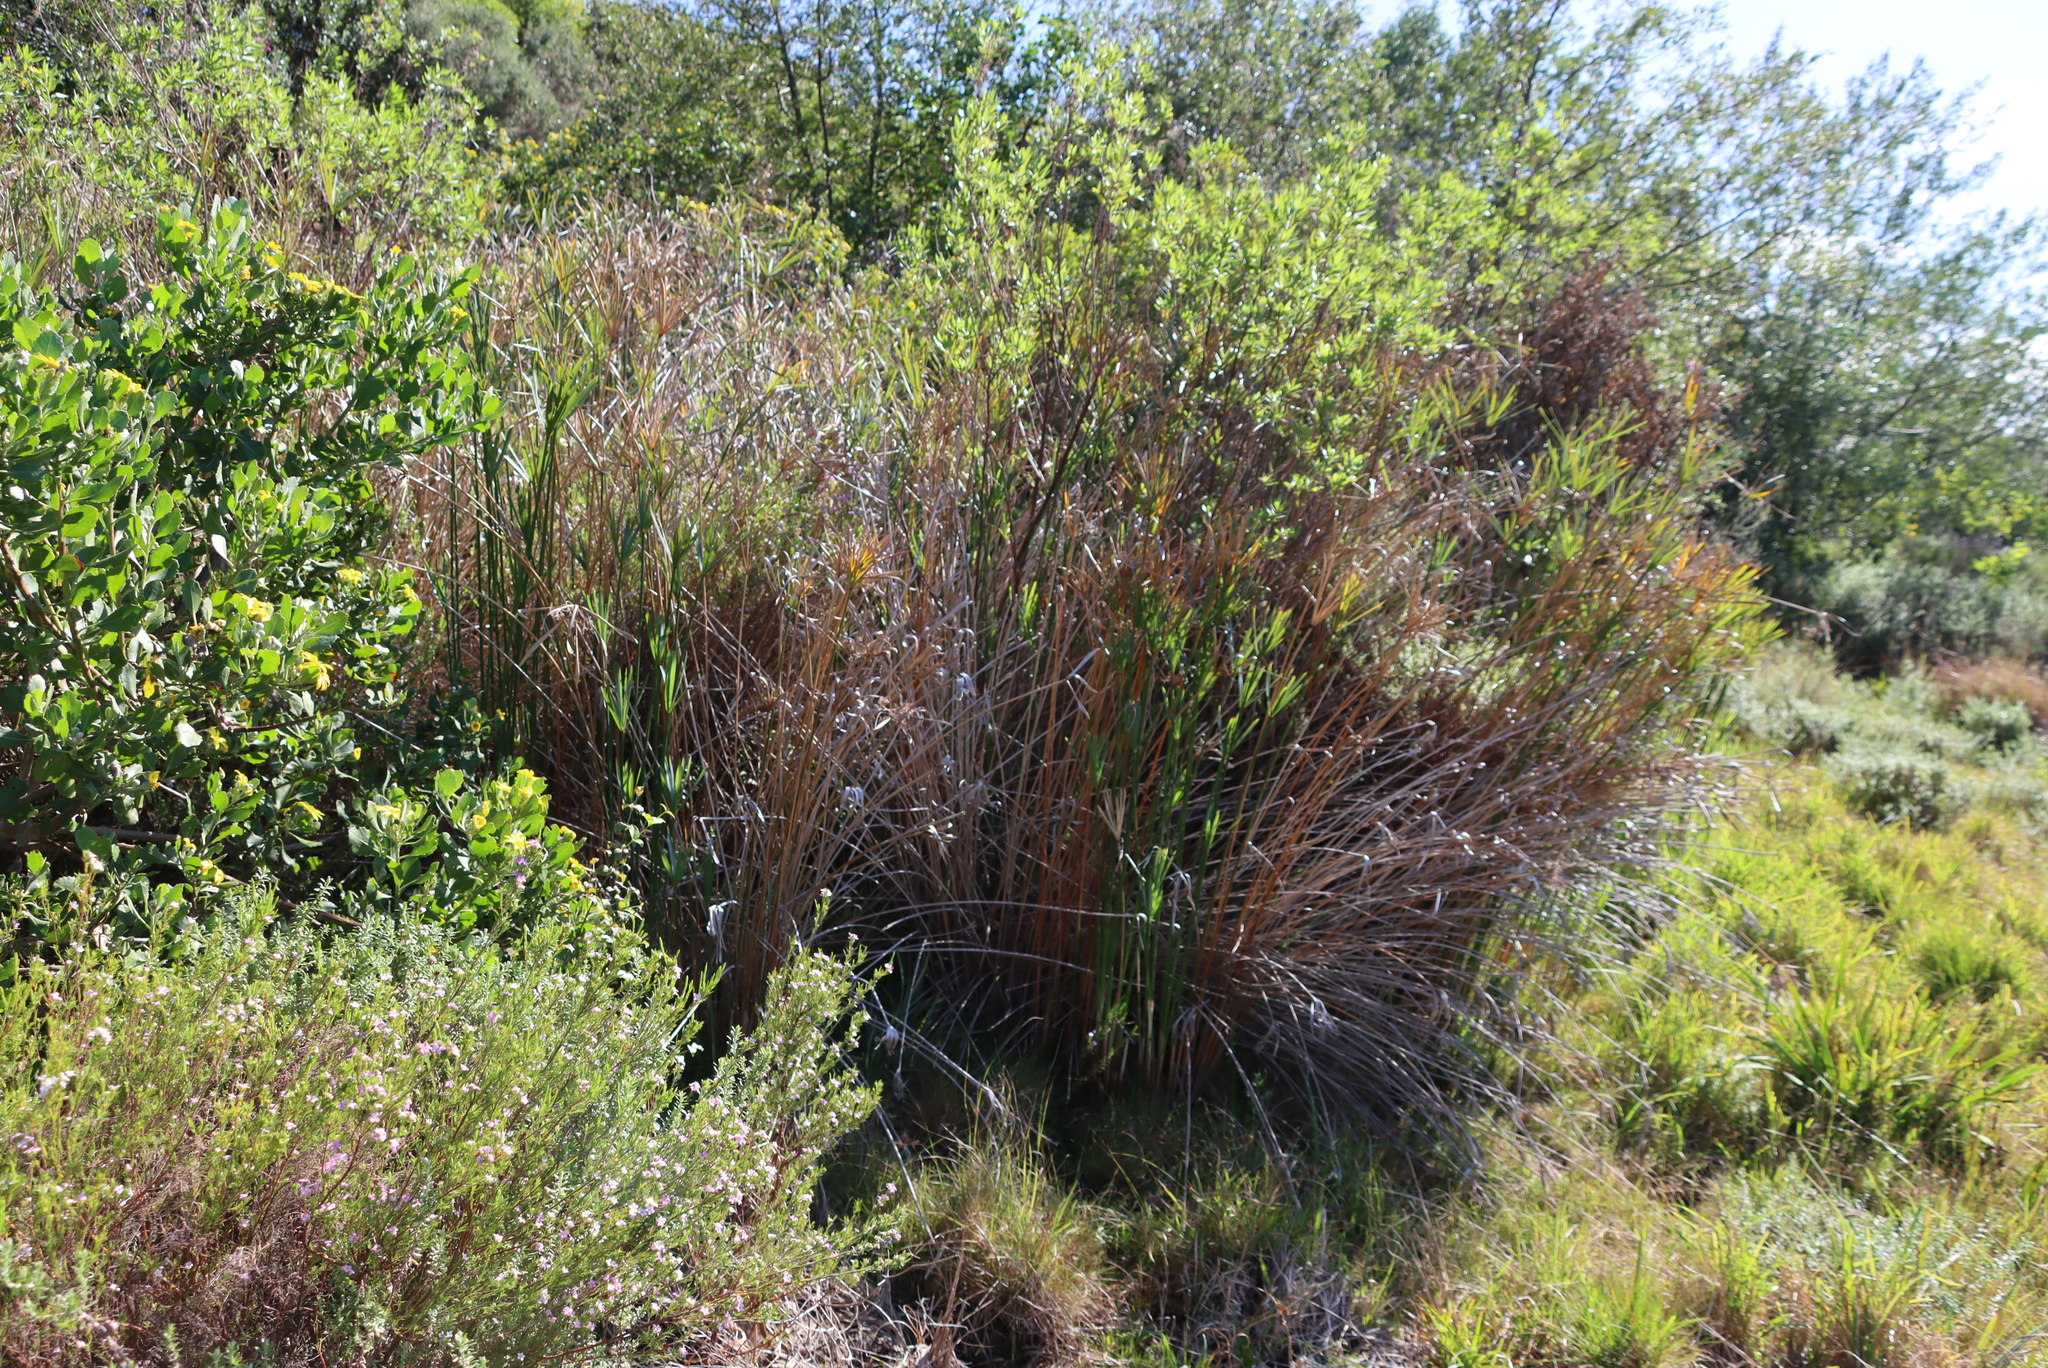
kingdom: Plantae
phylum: Tracheophyta
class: Liliopsida
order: Poales
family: Cyperaceae
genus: Cyperus
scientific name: Cyperus textilis
